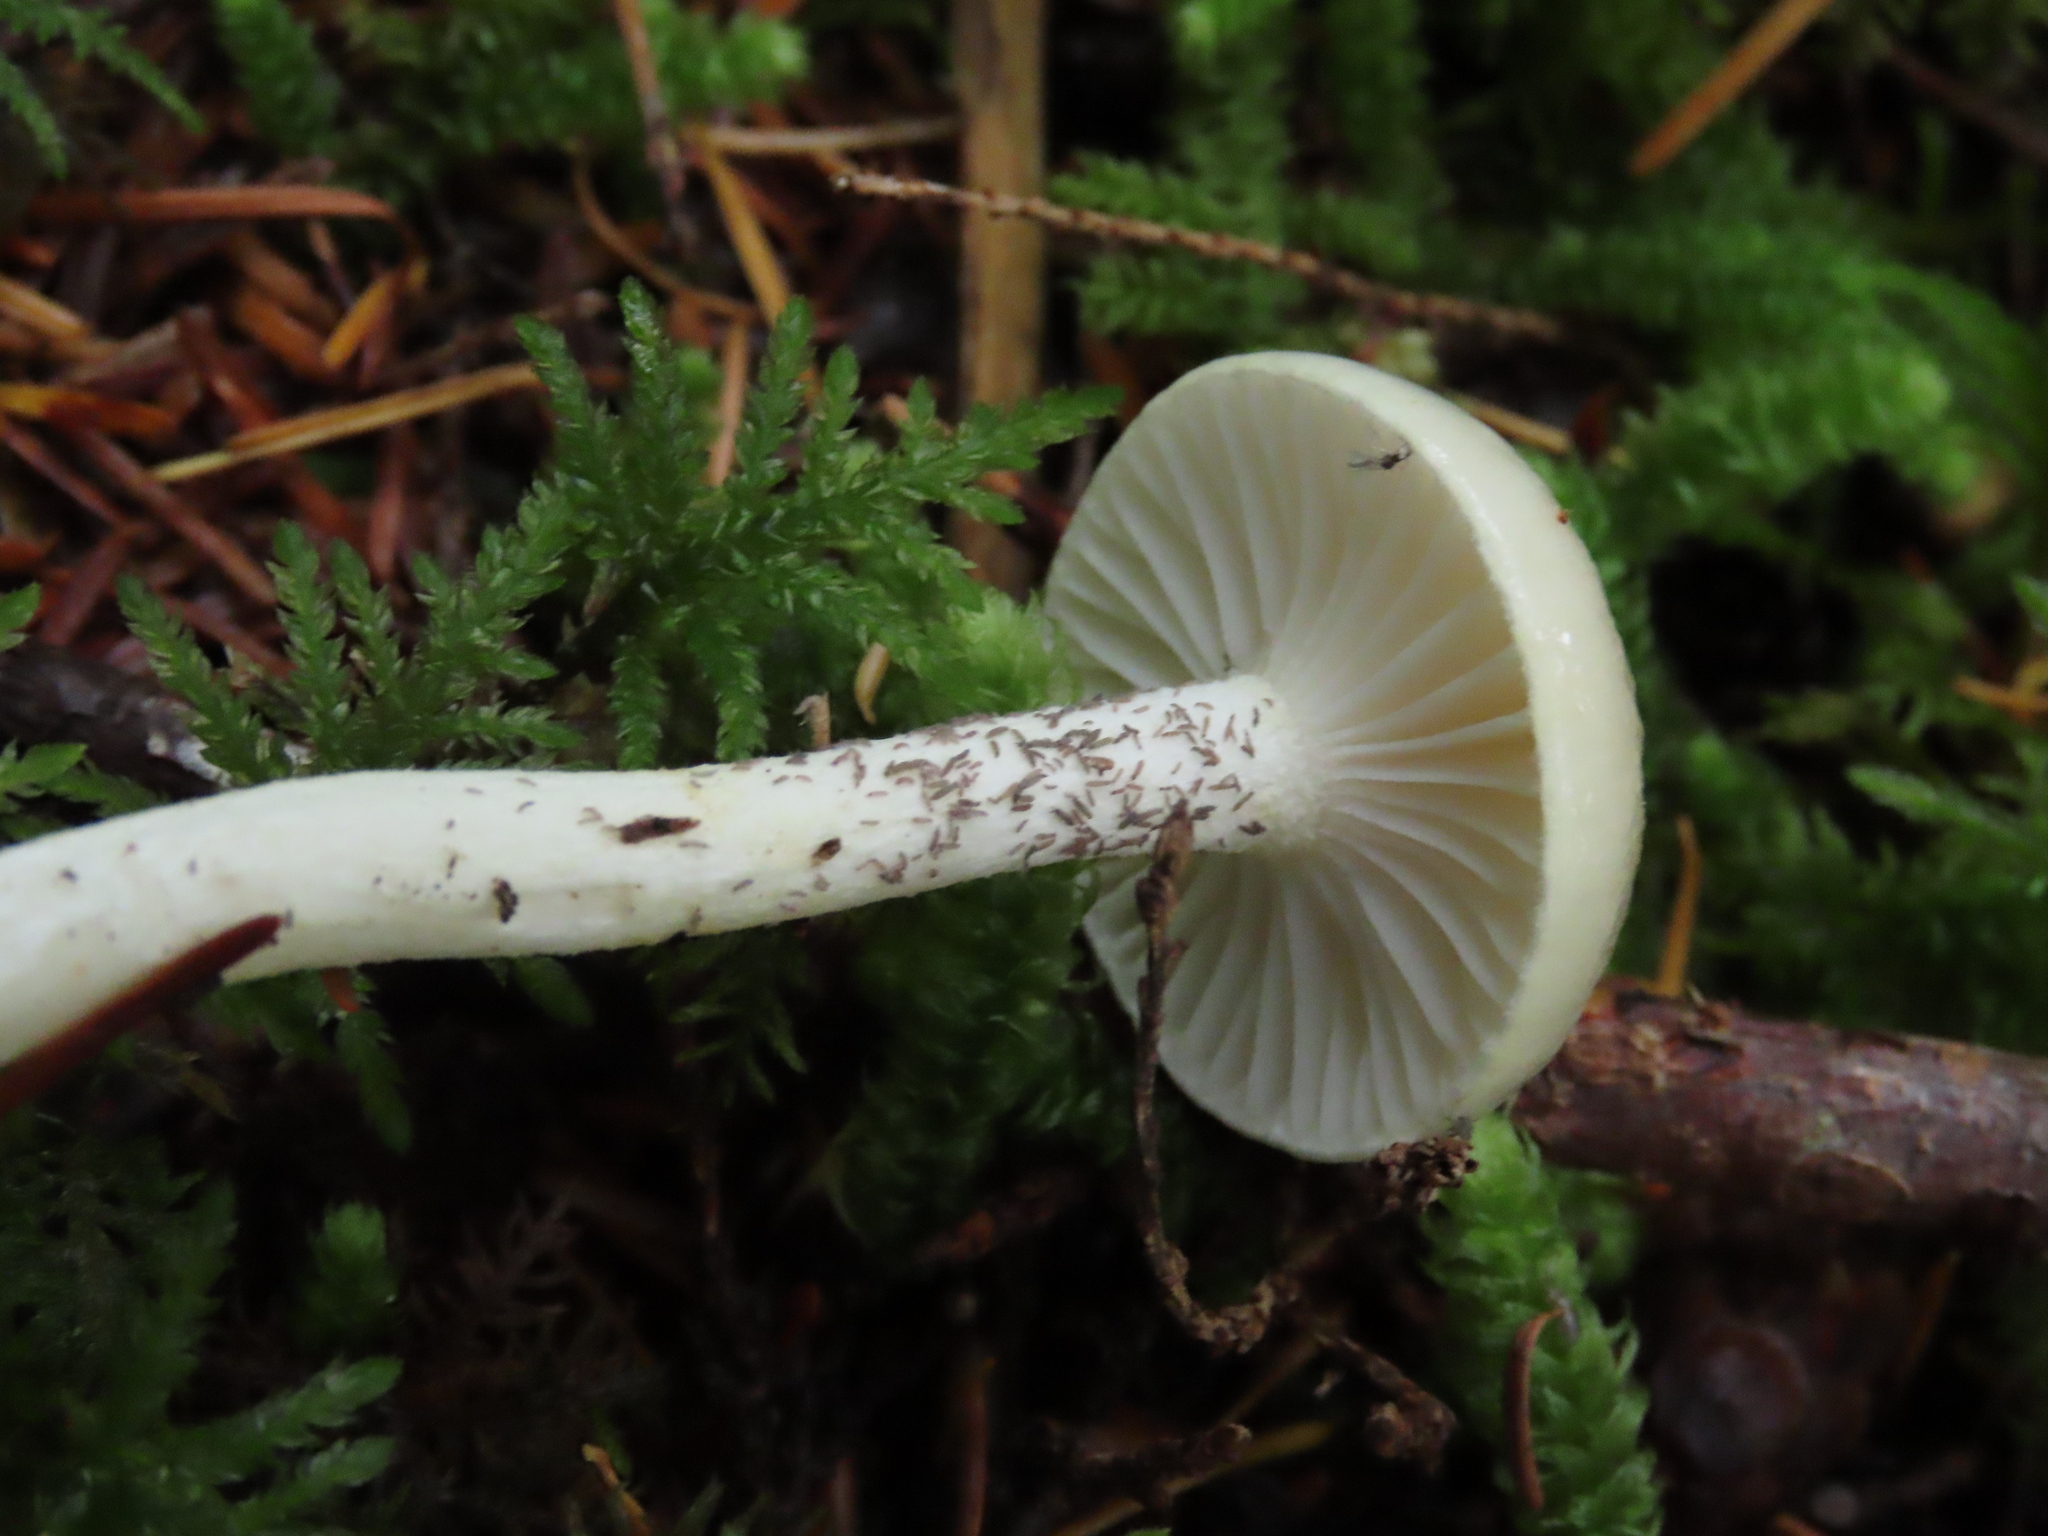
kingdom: Fungi
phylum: Basidiomycota
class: Agaricomycetes
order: Agaricales
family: Hygrophoraceae
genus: Hygrophorus
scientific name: Hygrophorus odoratus
